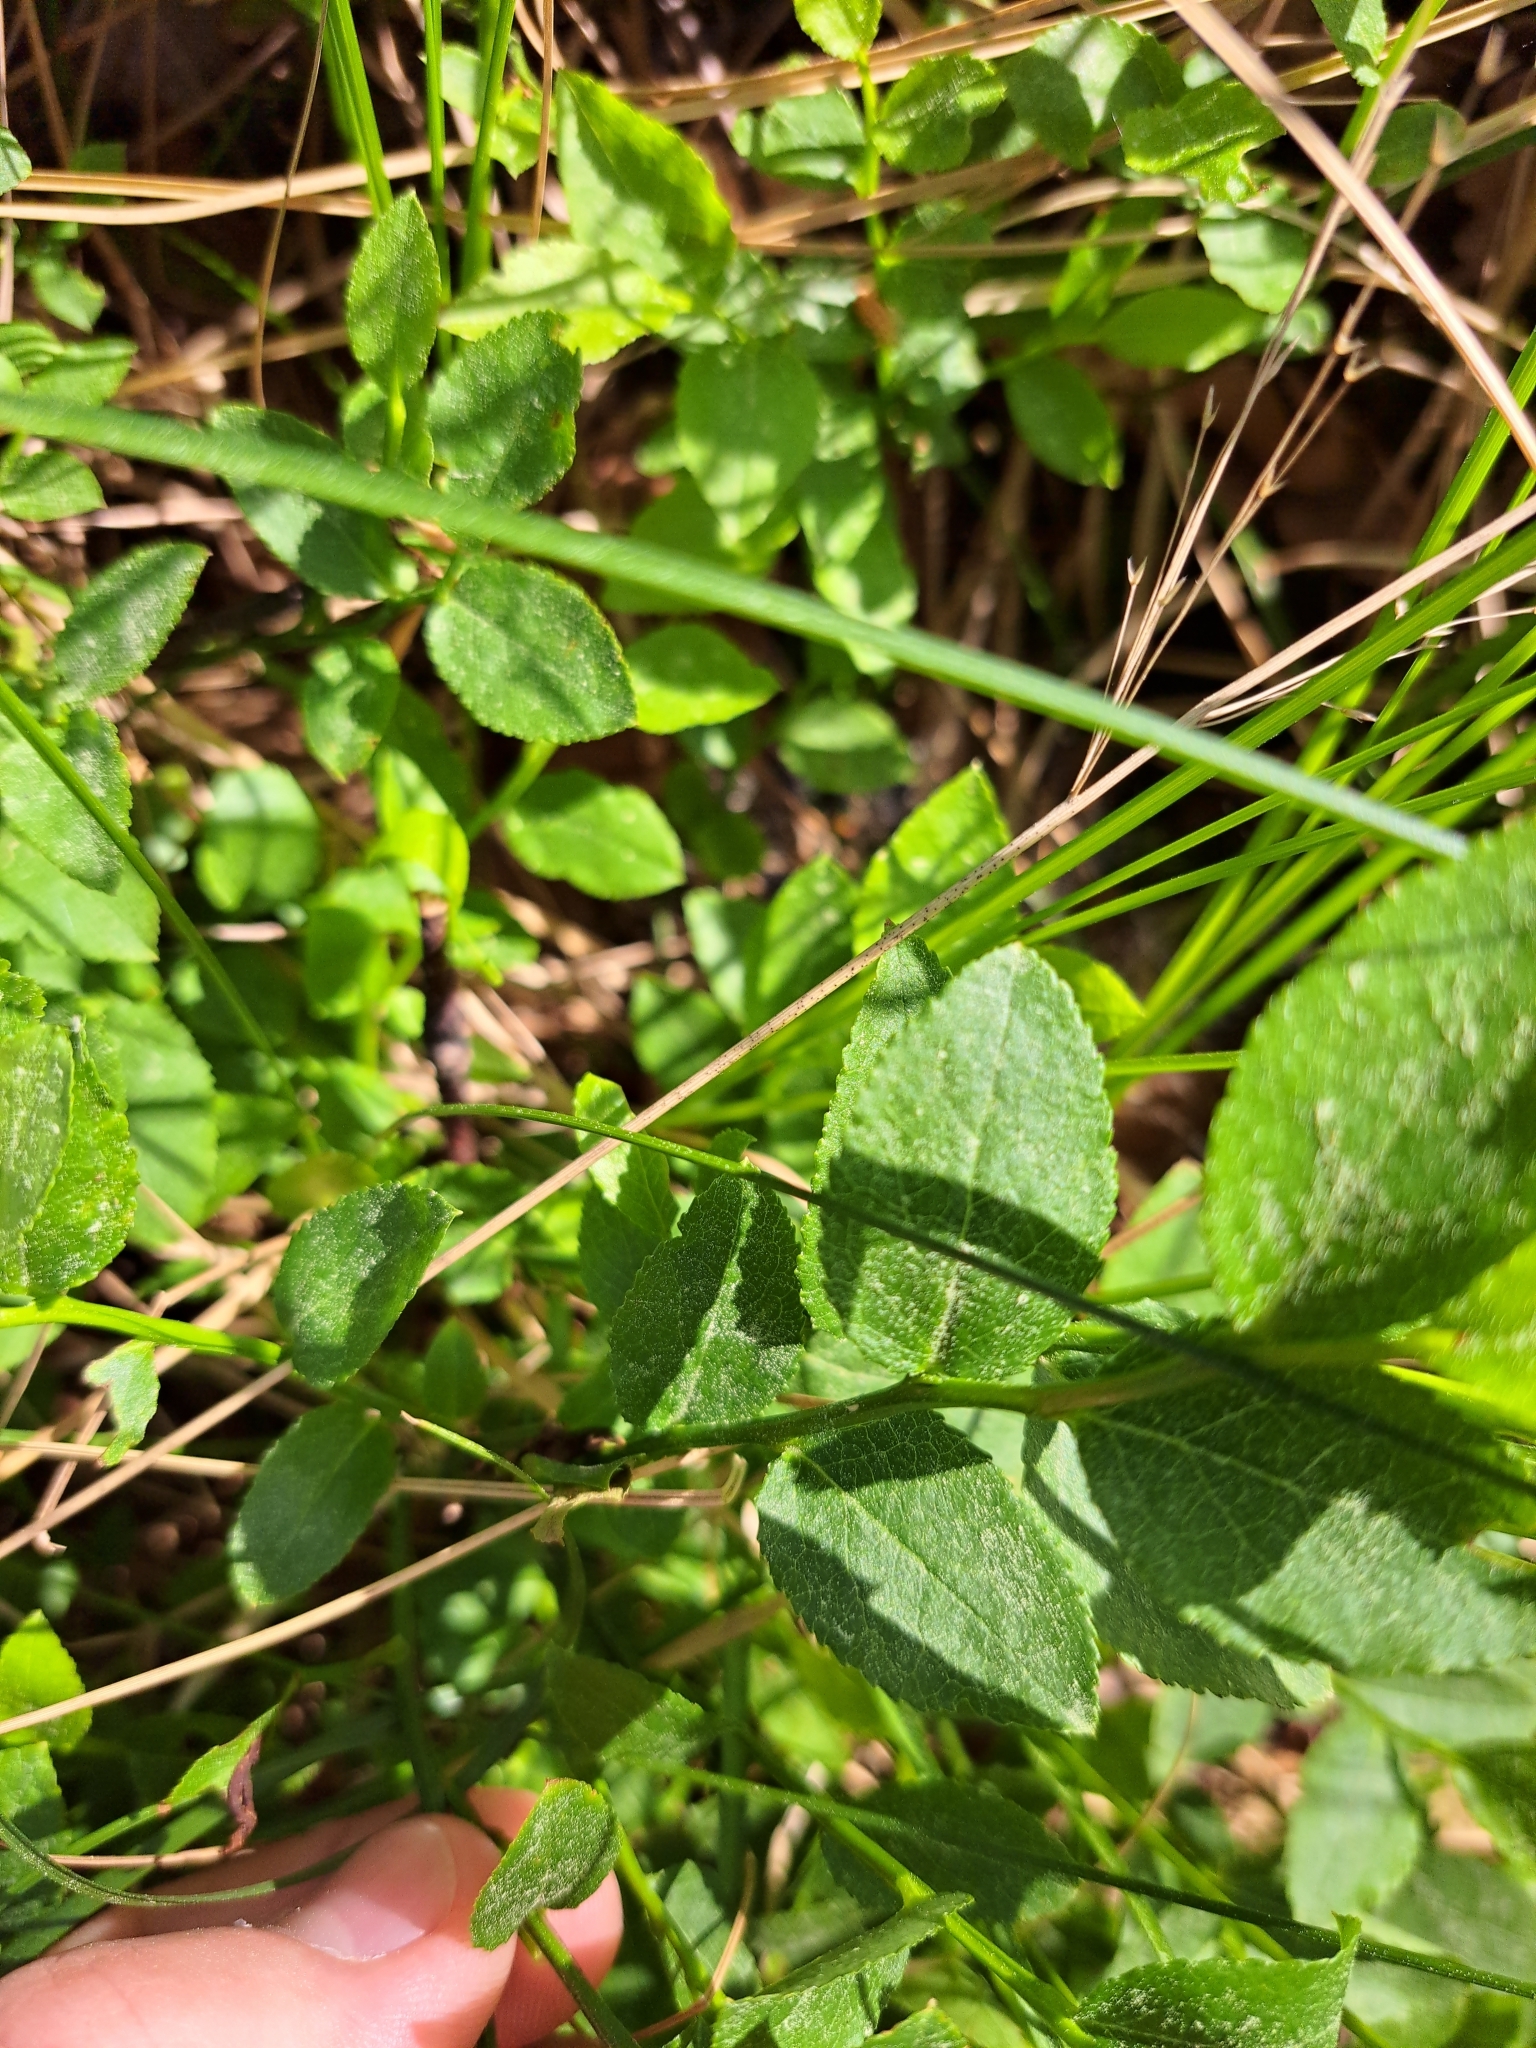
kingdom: Plantae
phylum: Tracheophyta
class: Magnoliopsida
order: Ericales
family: Ericaceae
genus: Vaccinium
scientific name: Vaccinium myrtillus
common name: Bilberry
